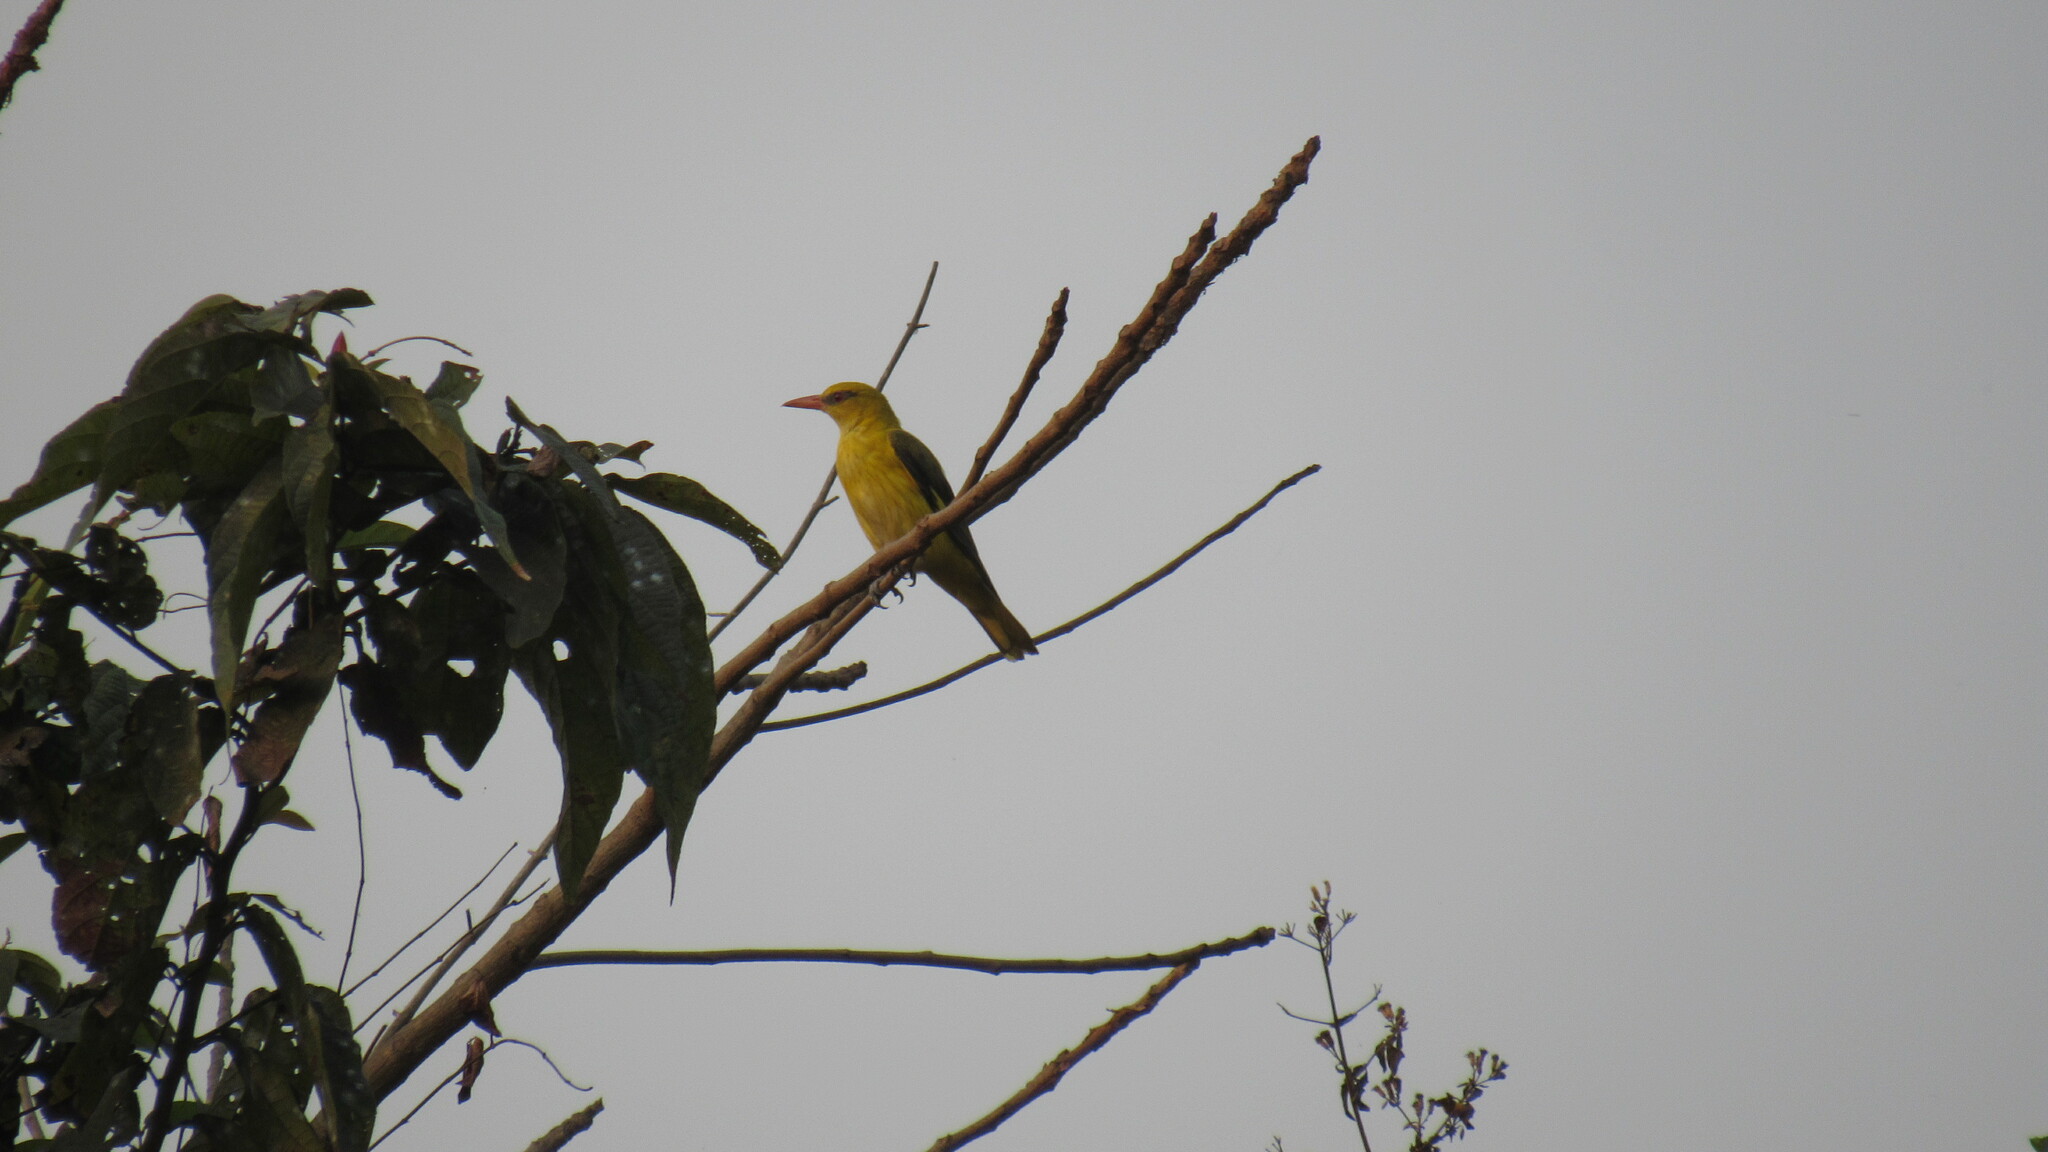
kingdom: Animalia
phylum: Chordata
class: Aves
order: Passeriformes
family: Oriolidae
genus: Oriolus
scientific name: Oriolus kundoo
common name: Indian golden oriole
